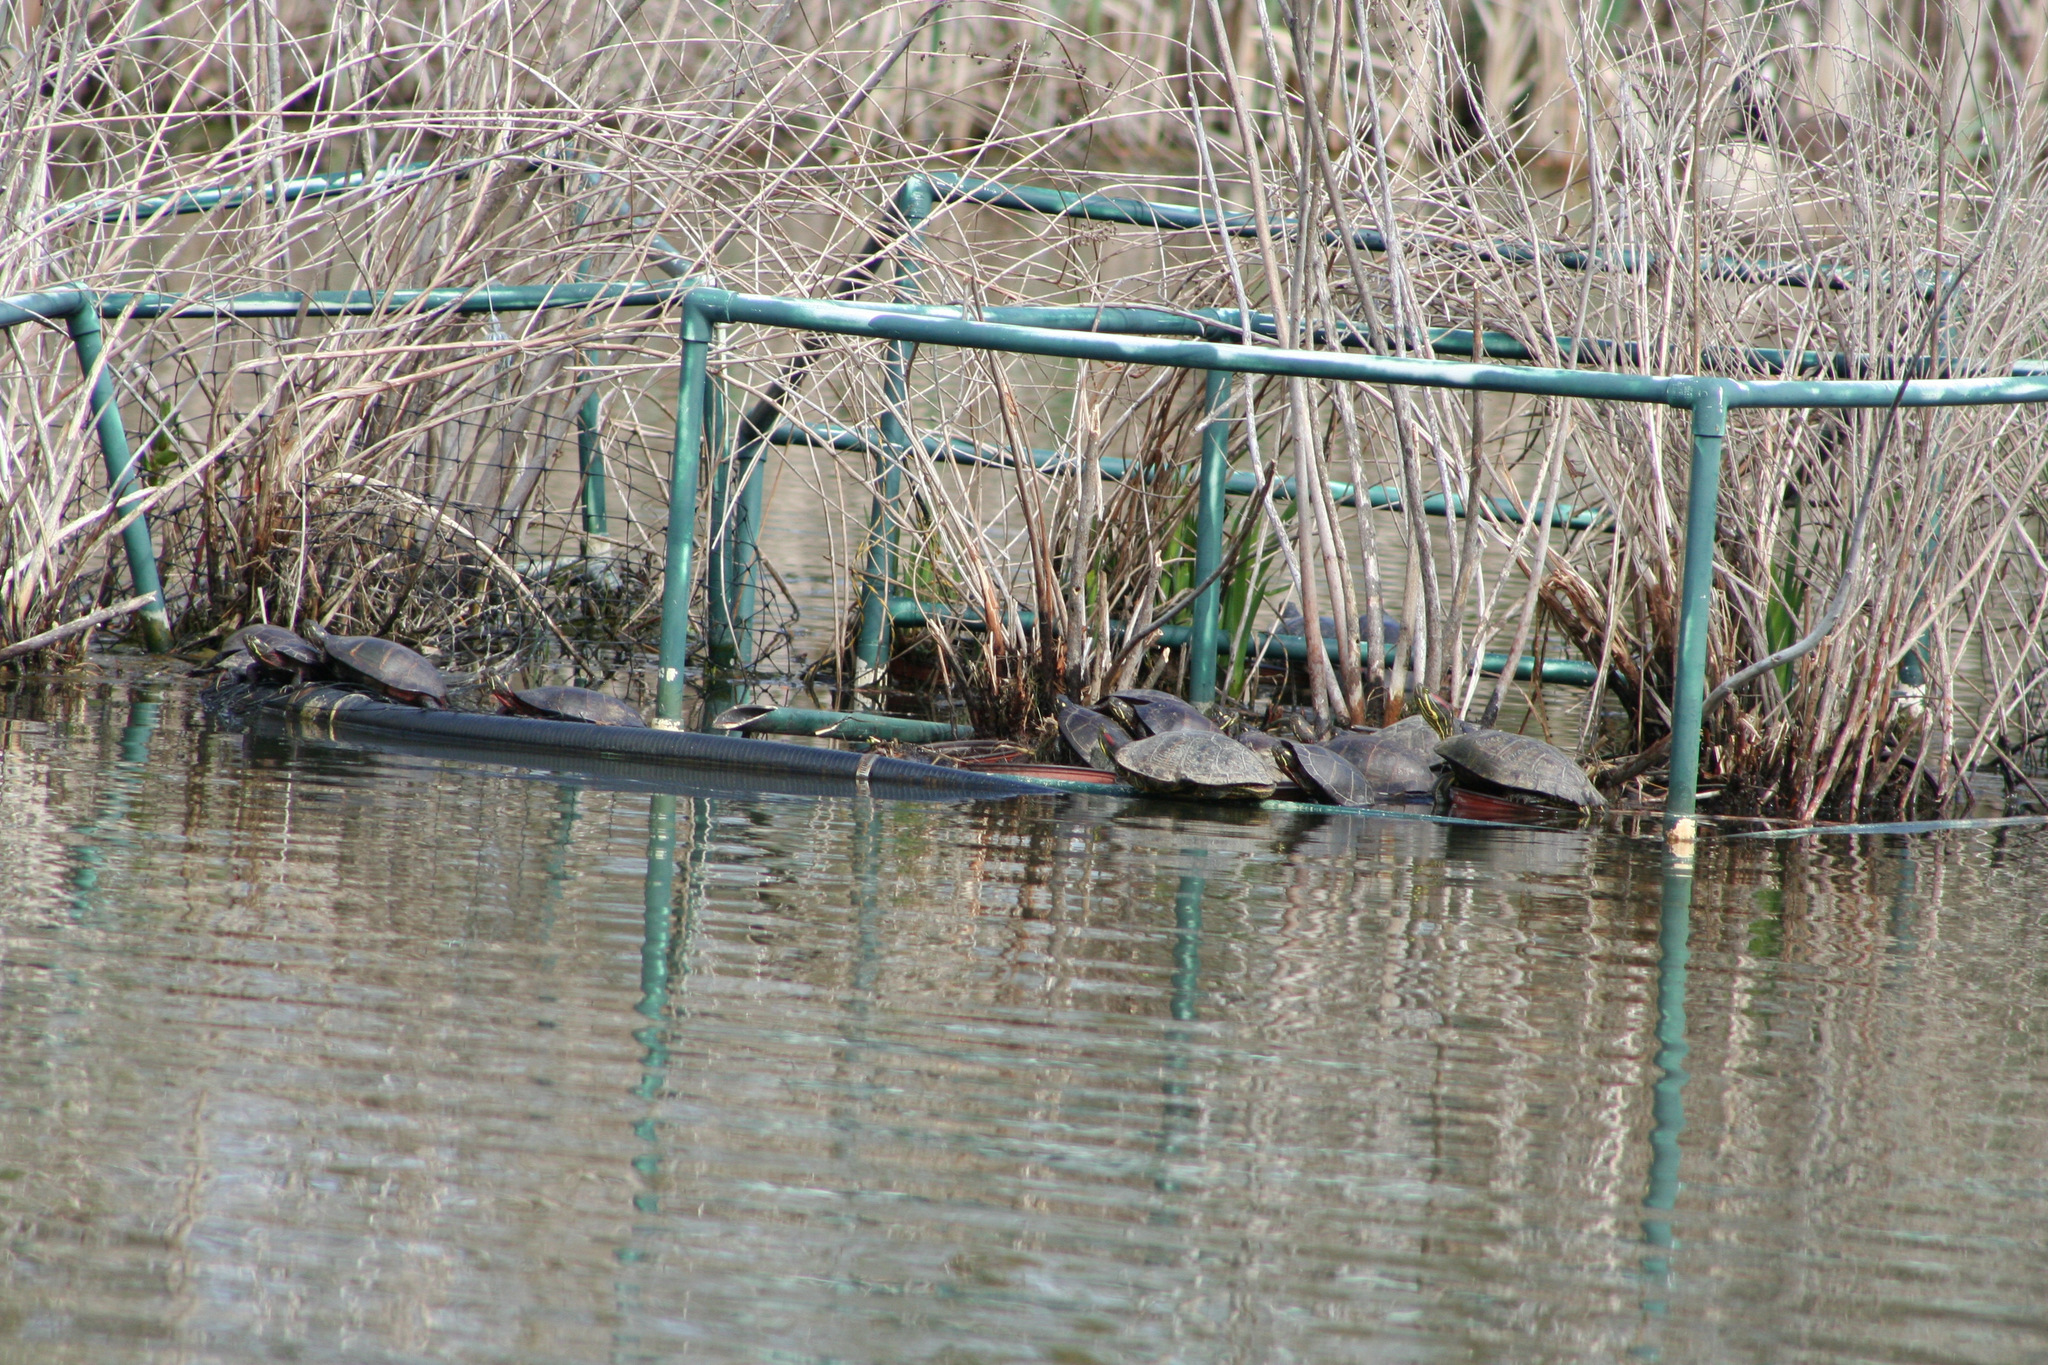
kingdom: Animalia
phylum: Chordata
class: Testudines
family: Emydidae
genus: Trachemys
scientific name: Trachemys scripta
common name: Slider
